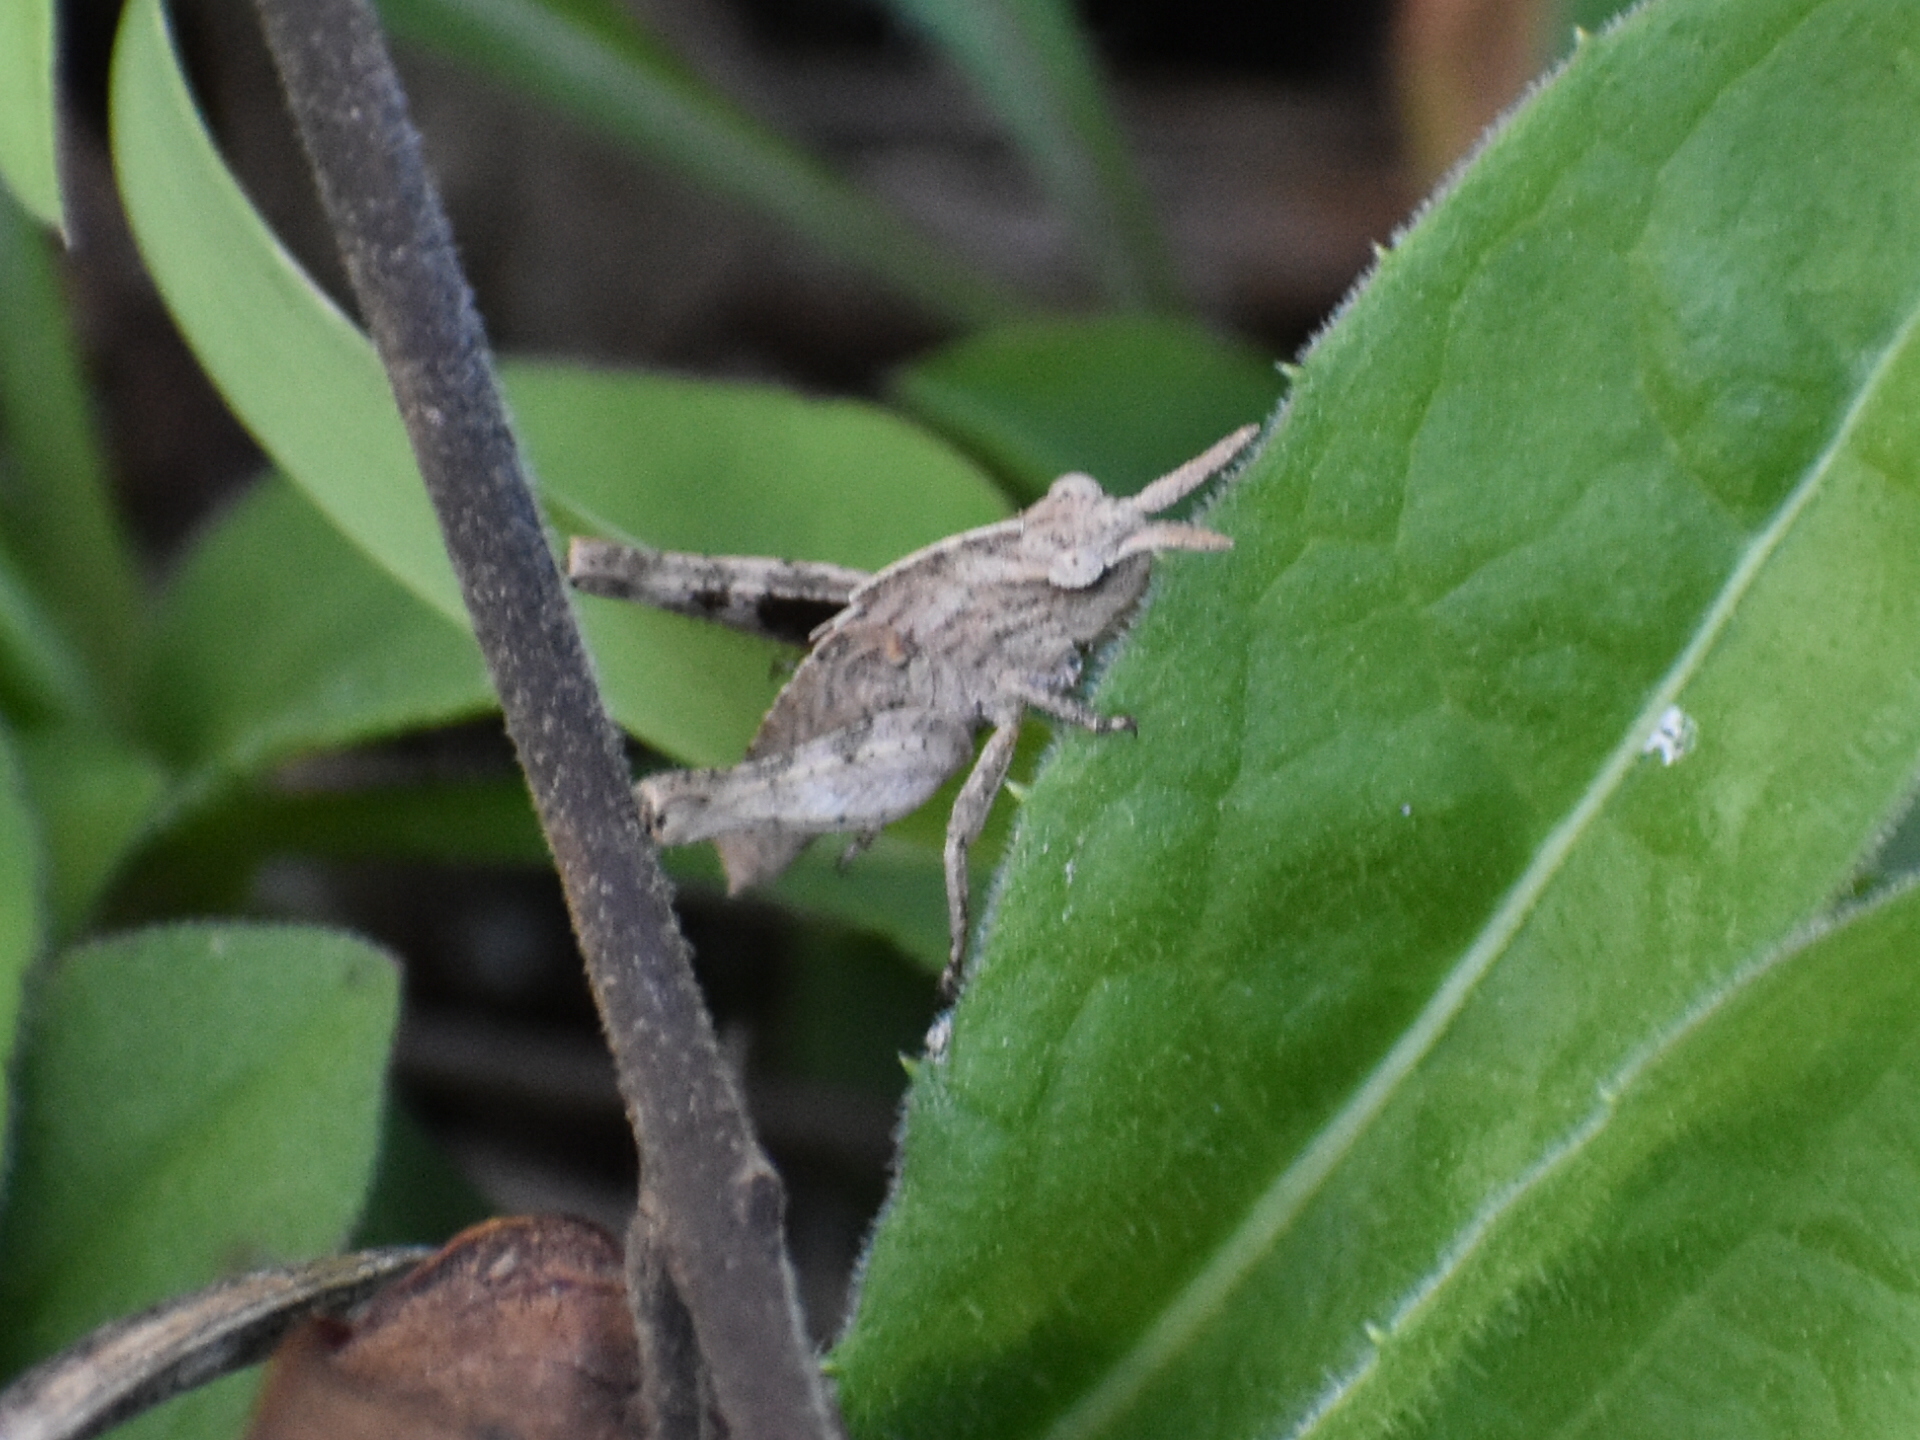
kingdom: Animalia
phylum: Arthropoda
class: Insecta
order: Orthoptera
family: Acrididae
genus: Chortophaga
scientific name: Chortophaga viridifasciata
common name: Green-striped grasshopper
